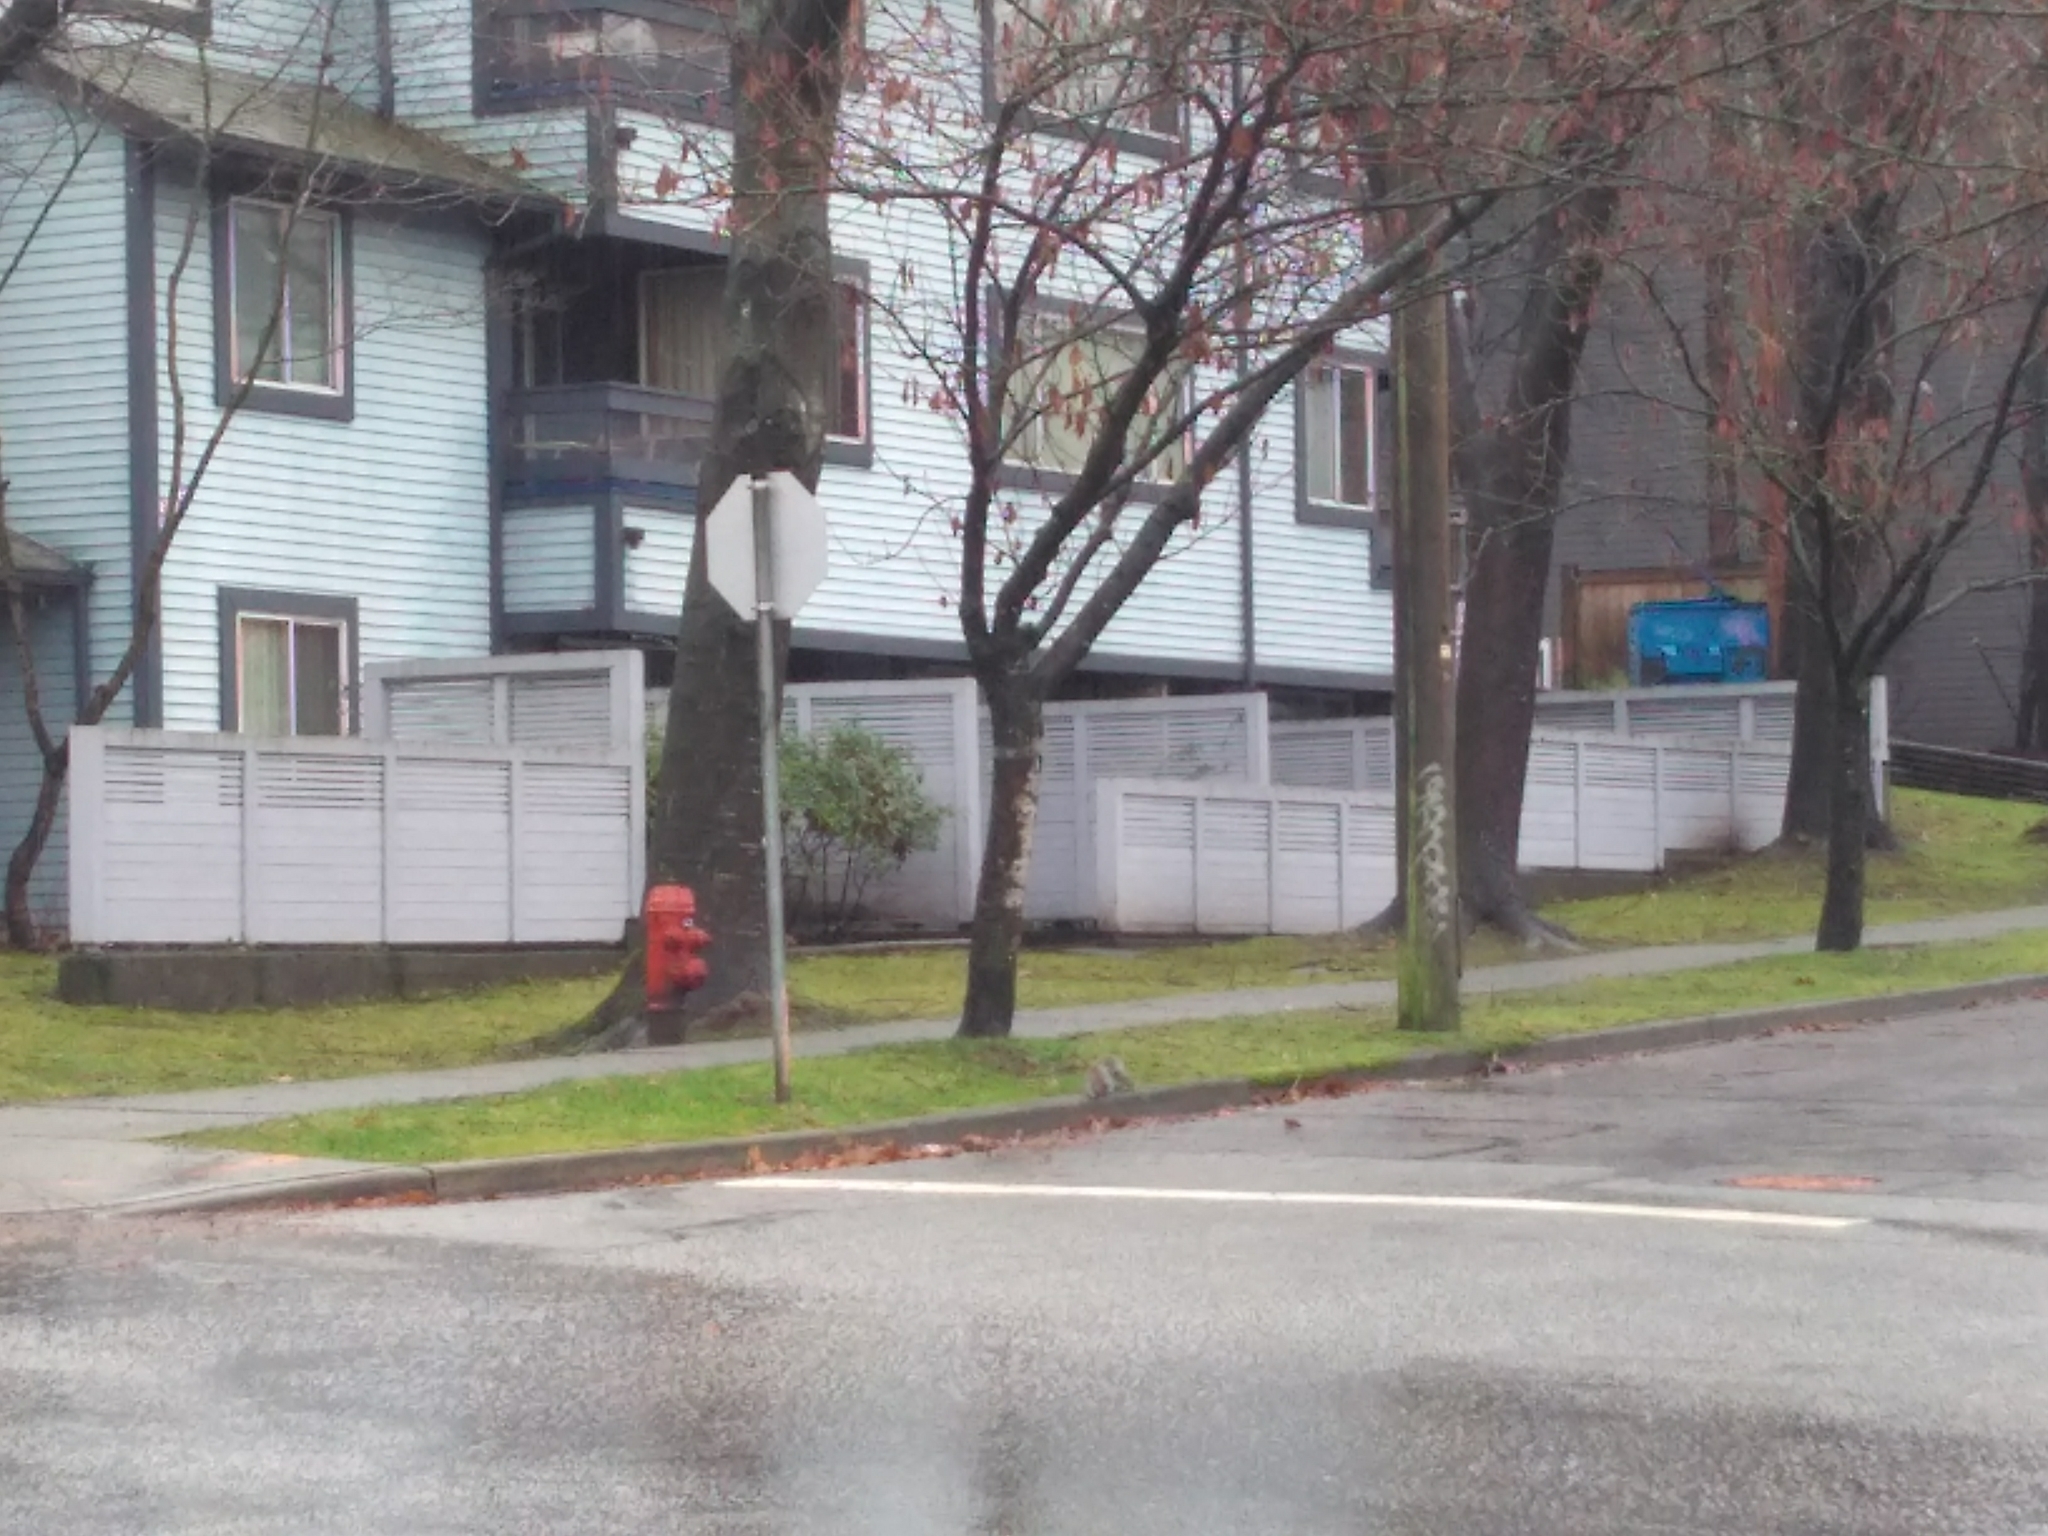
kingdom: Animalia
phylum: Chordata
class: Mammalia
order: Rodentia
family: Sciuridae
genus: Sciurus
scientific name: Sciurus carolinensis
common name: Eastern gray squirrel
